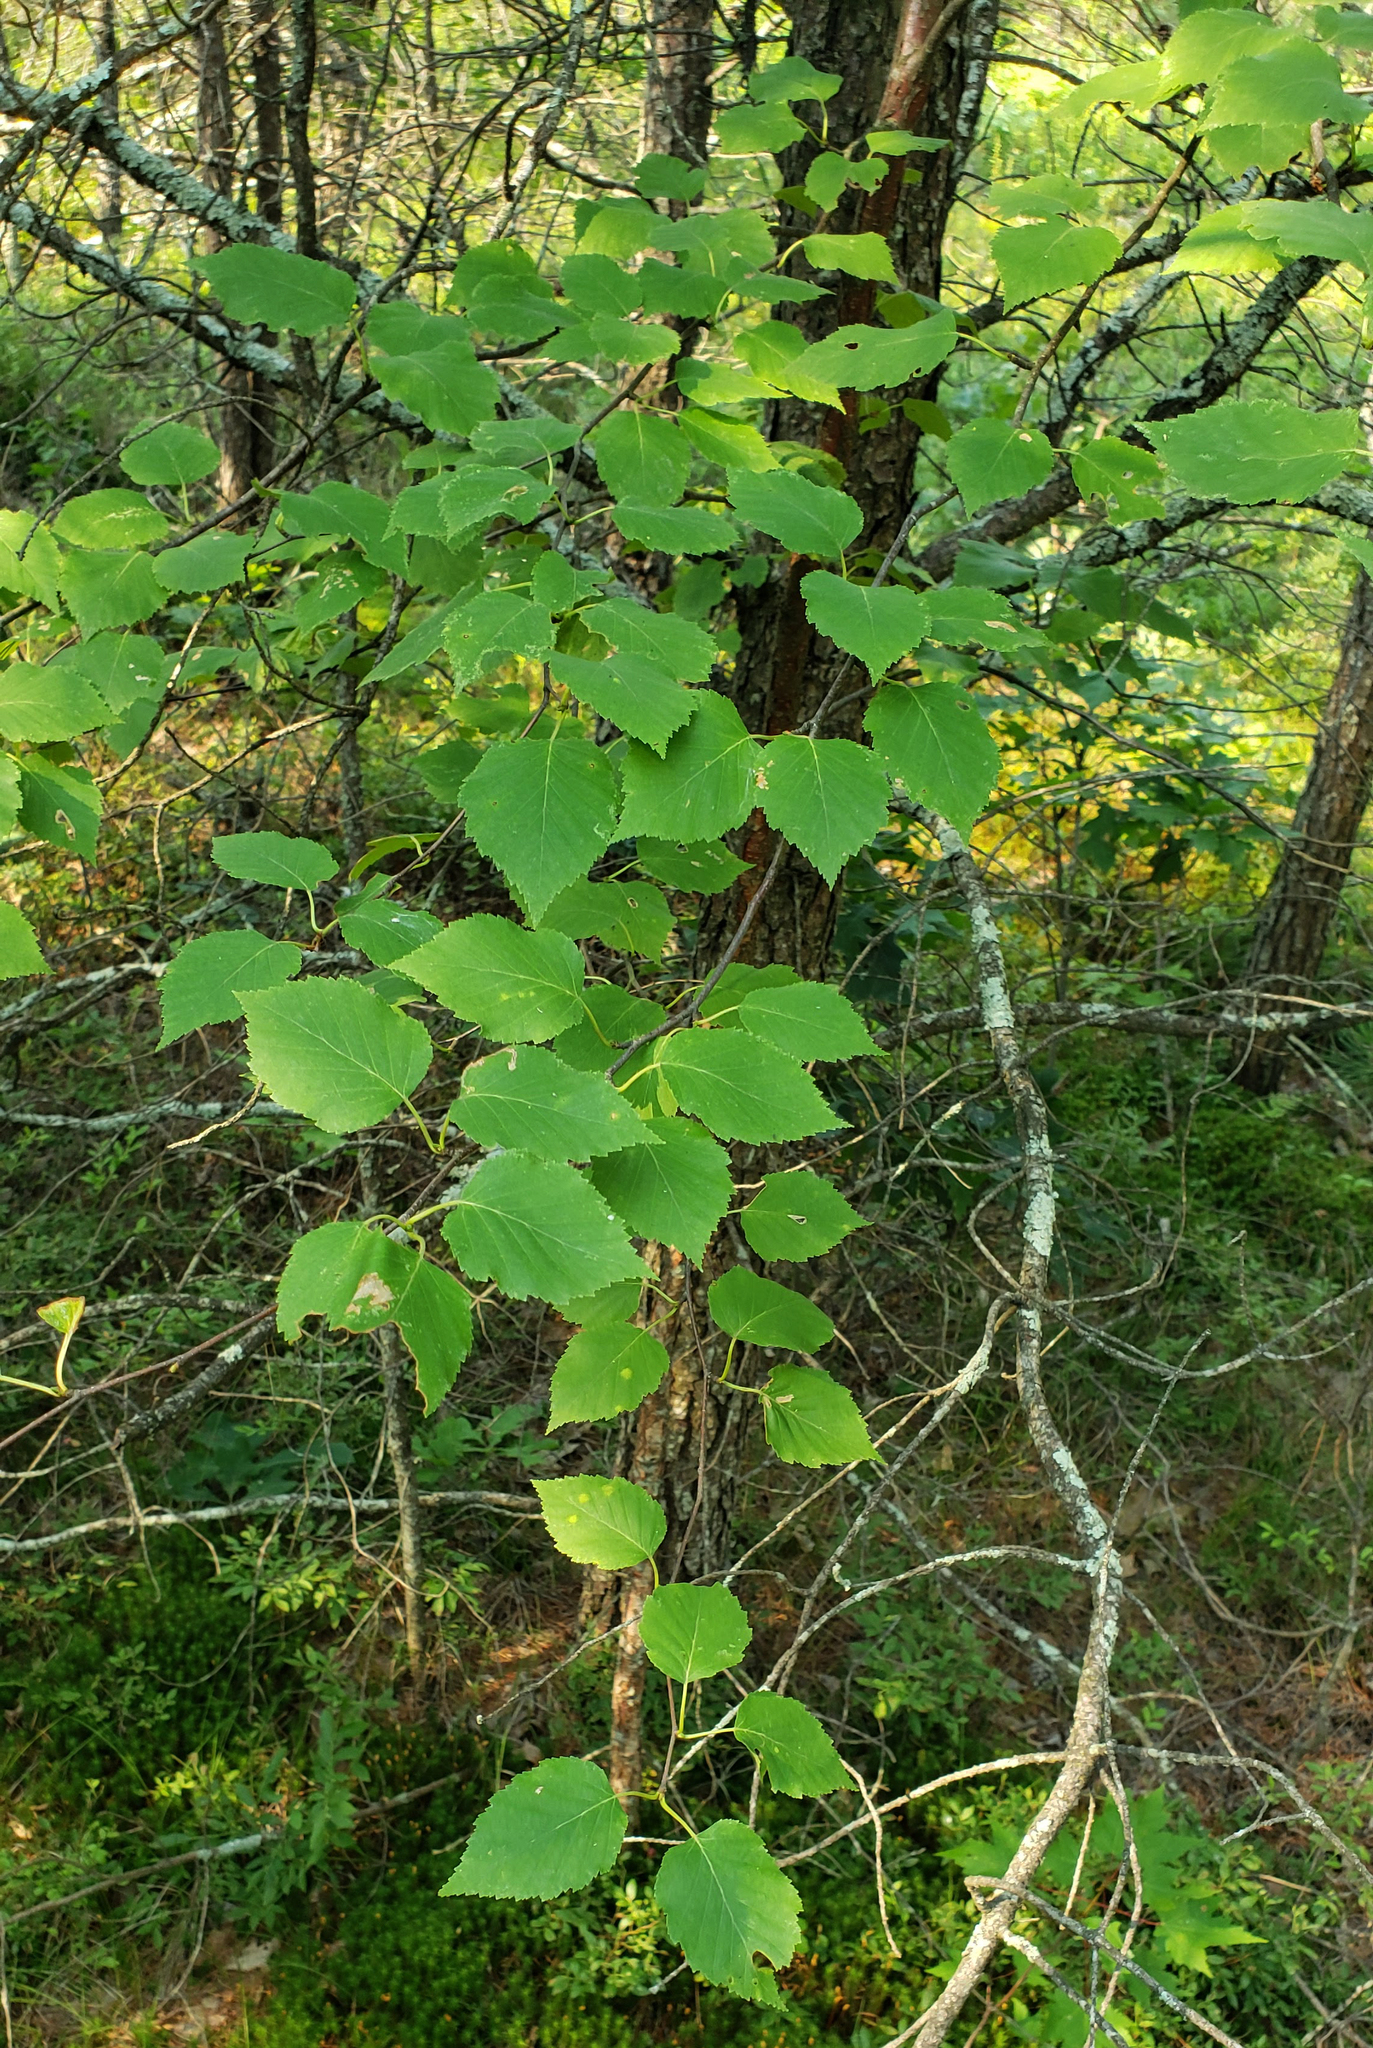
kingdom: Plantae
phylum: Tracheophyta
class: Magnoliopsida
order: Fagales
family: Betulaceae
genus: Betula
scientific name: Betula nigra
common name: Black birch
